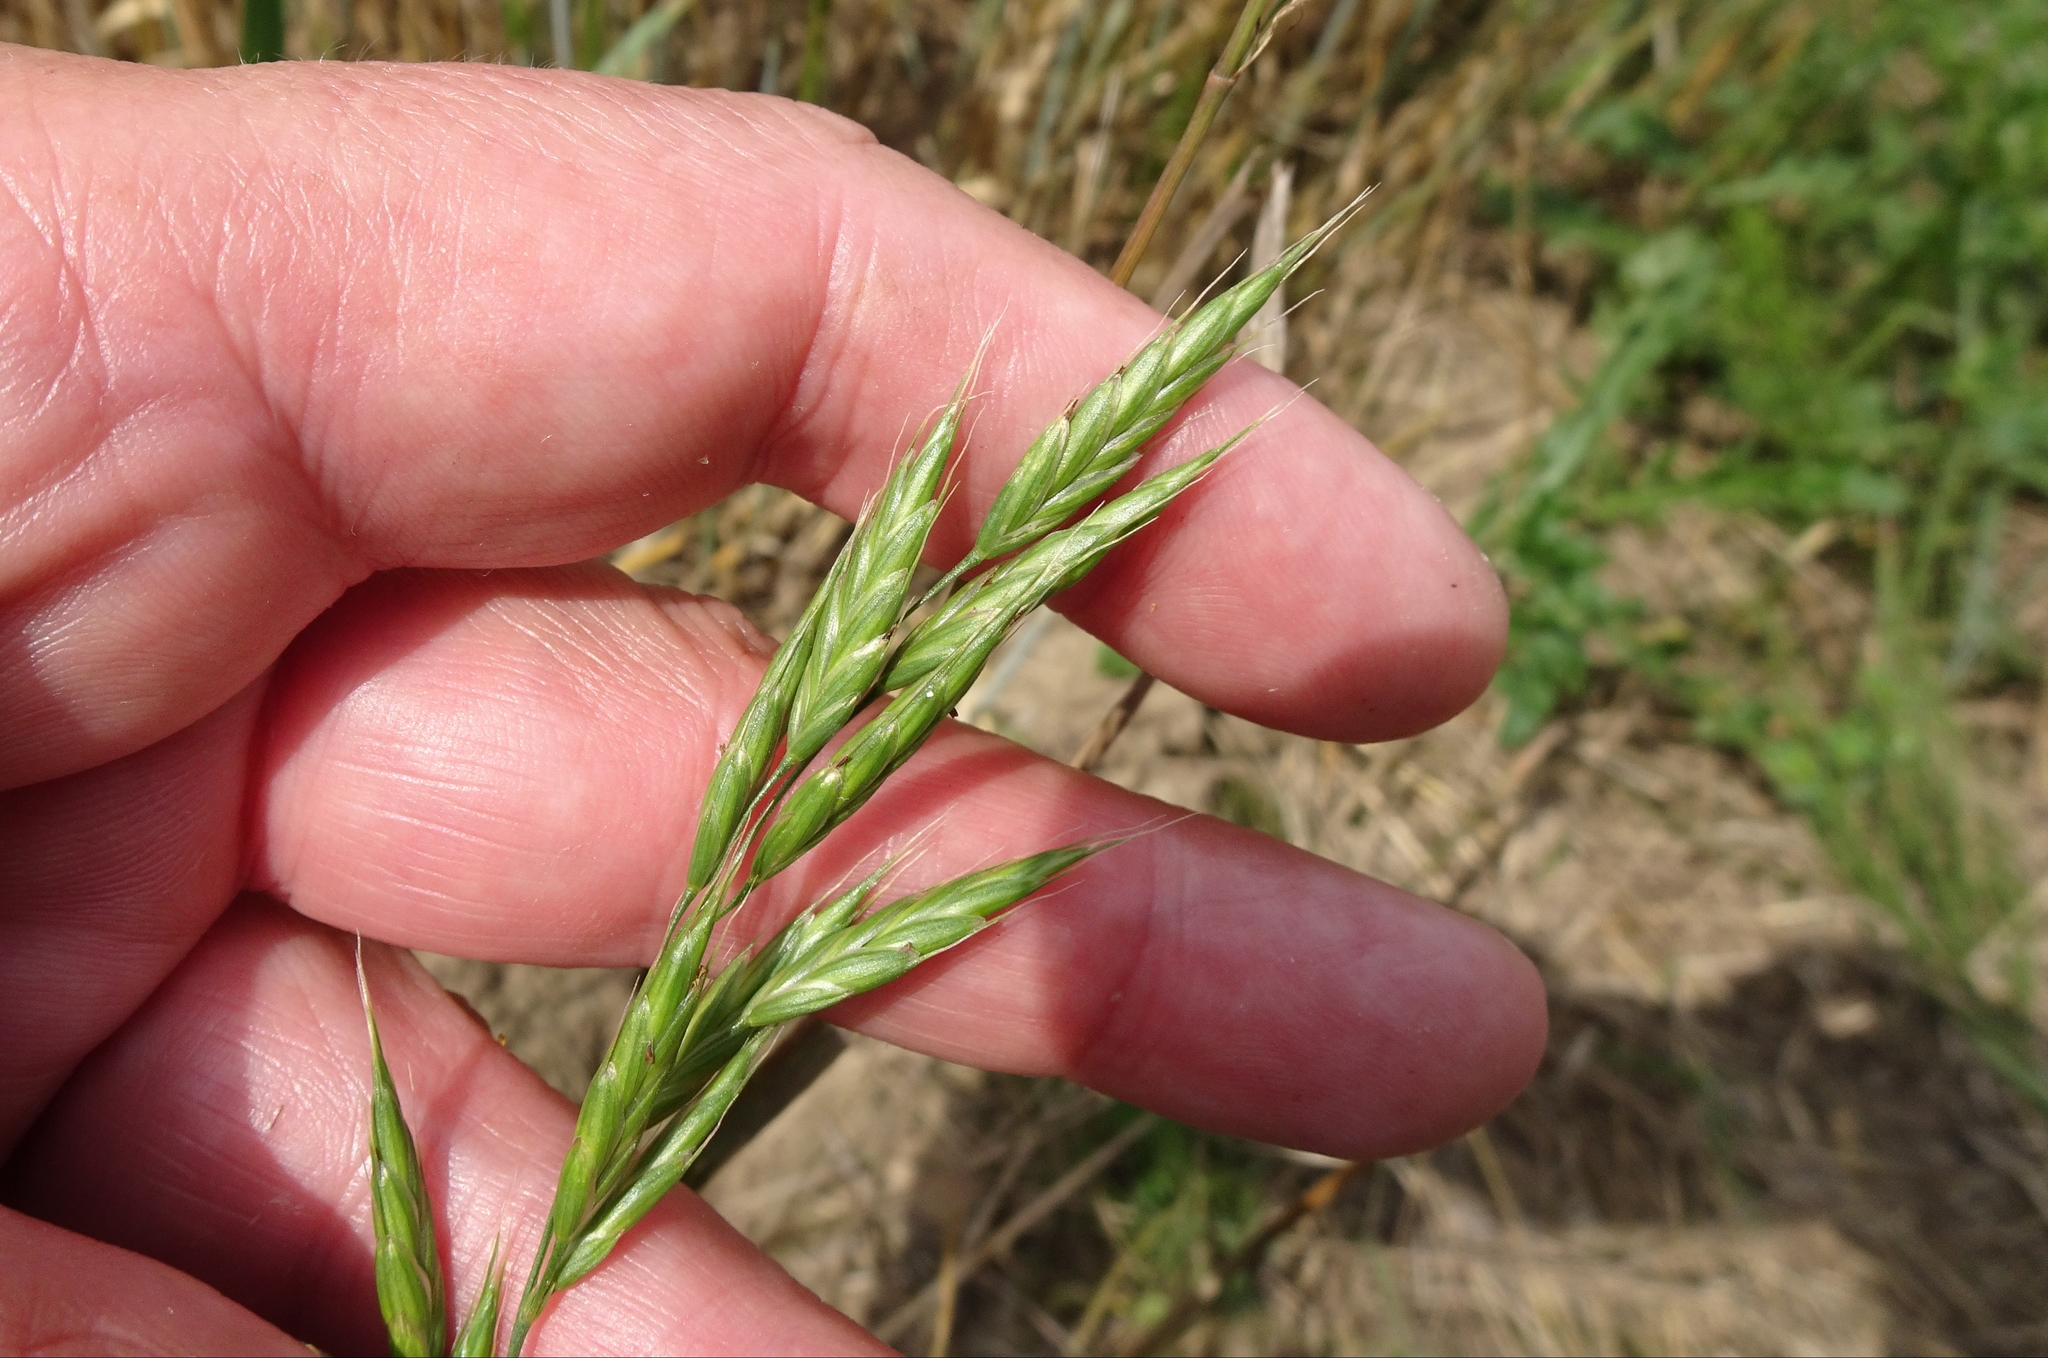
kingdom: Plantae
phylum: Tracheophyta
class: Liliopsida
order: Poales
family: Poaceae
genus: Bromus
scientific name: Bromus commutatus
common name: Meadow brome
